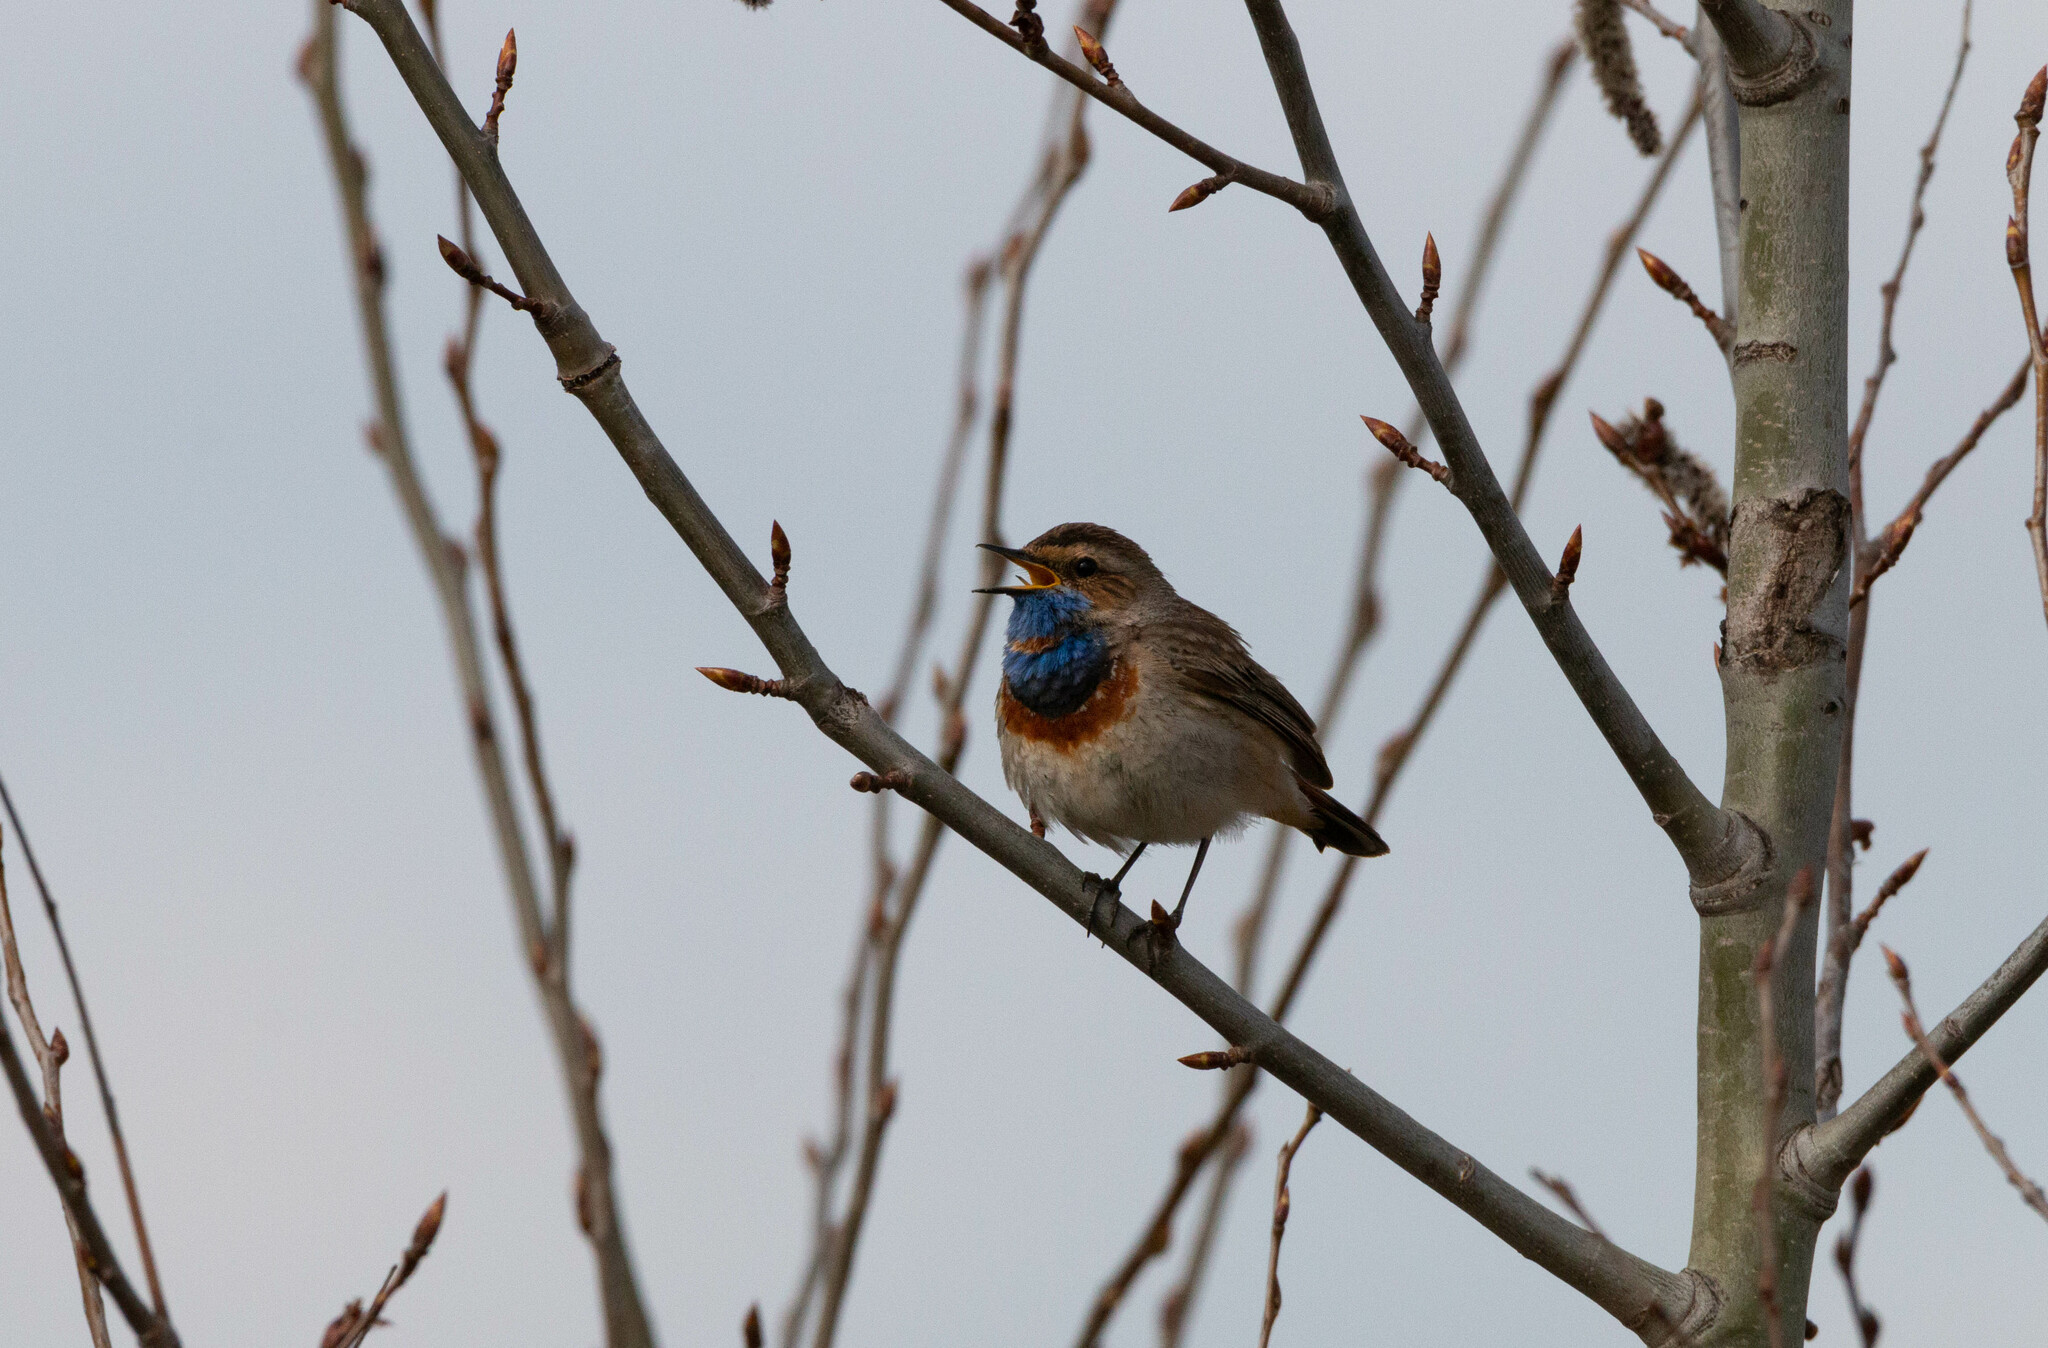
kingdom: Animalia
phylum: Chordata
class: Aves
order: Passeriformes
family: Muscicapidae
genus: Luscinia
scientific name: Luscinia svecica
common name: Bluethroat
